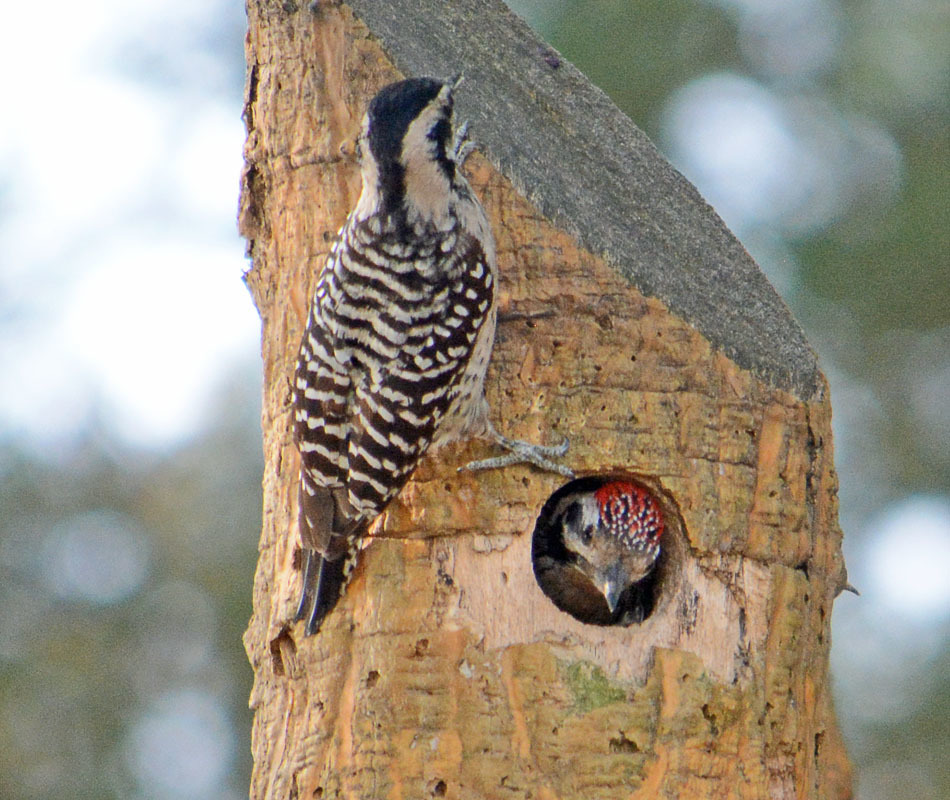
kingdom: Animalia
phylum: Chordata
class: Aves
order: Piciformes
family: Picidae
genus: Dryobates
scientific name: Dryobates scalaris
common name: Ladder-backed woodpecker
